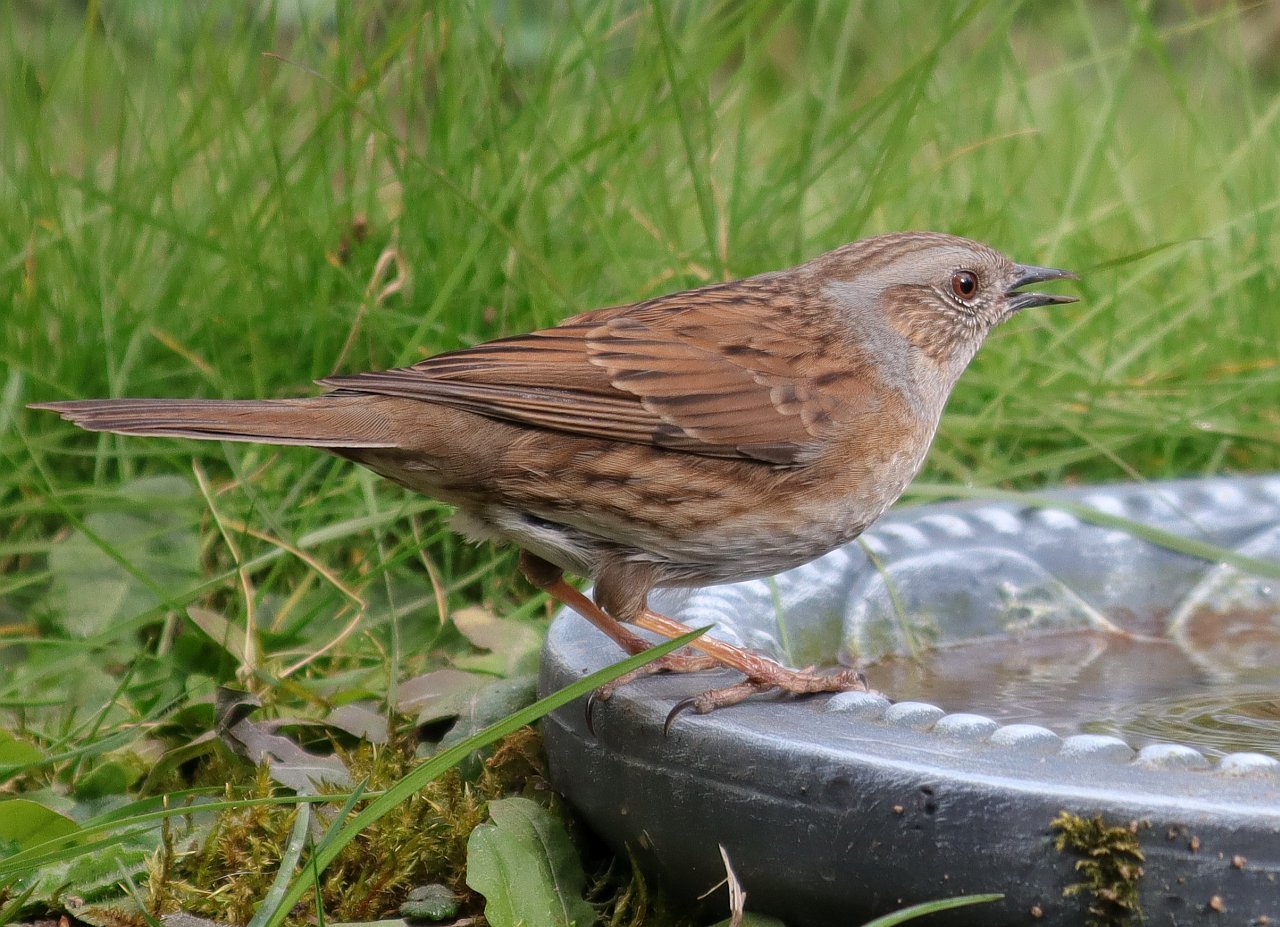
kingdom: Animalia
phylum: Chordata
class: Aves
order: Passeriformes
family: Prunellidae
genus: Prunella
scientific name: Prunella modularis
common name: Dunnock
